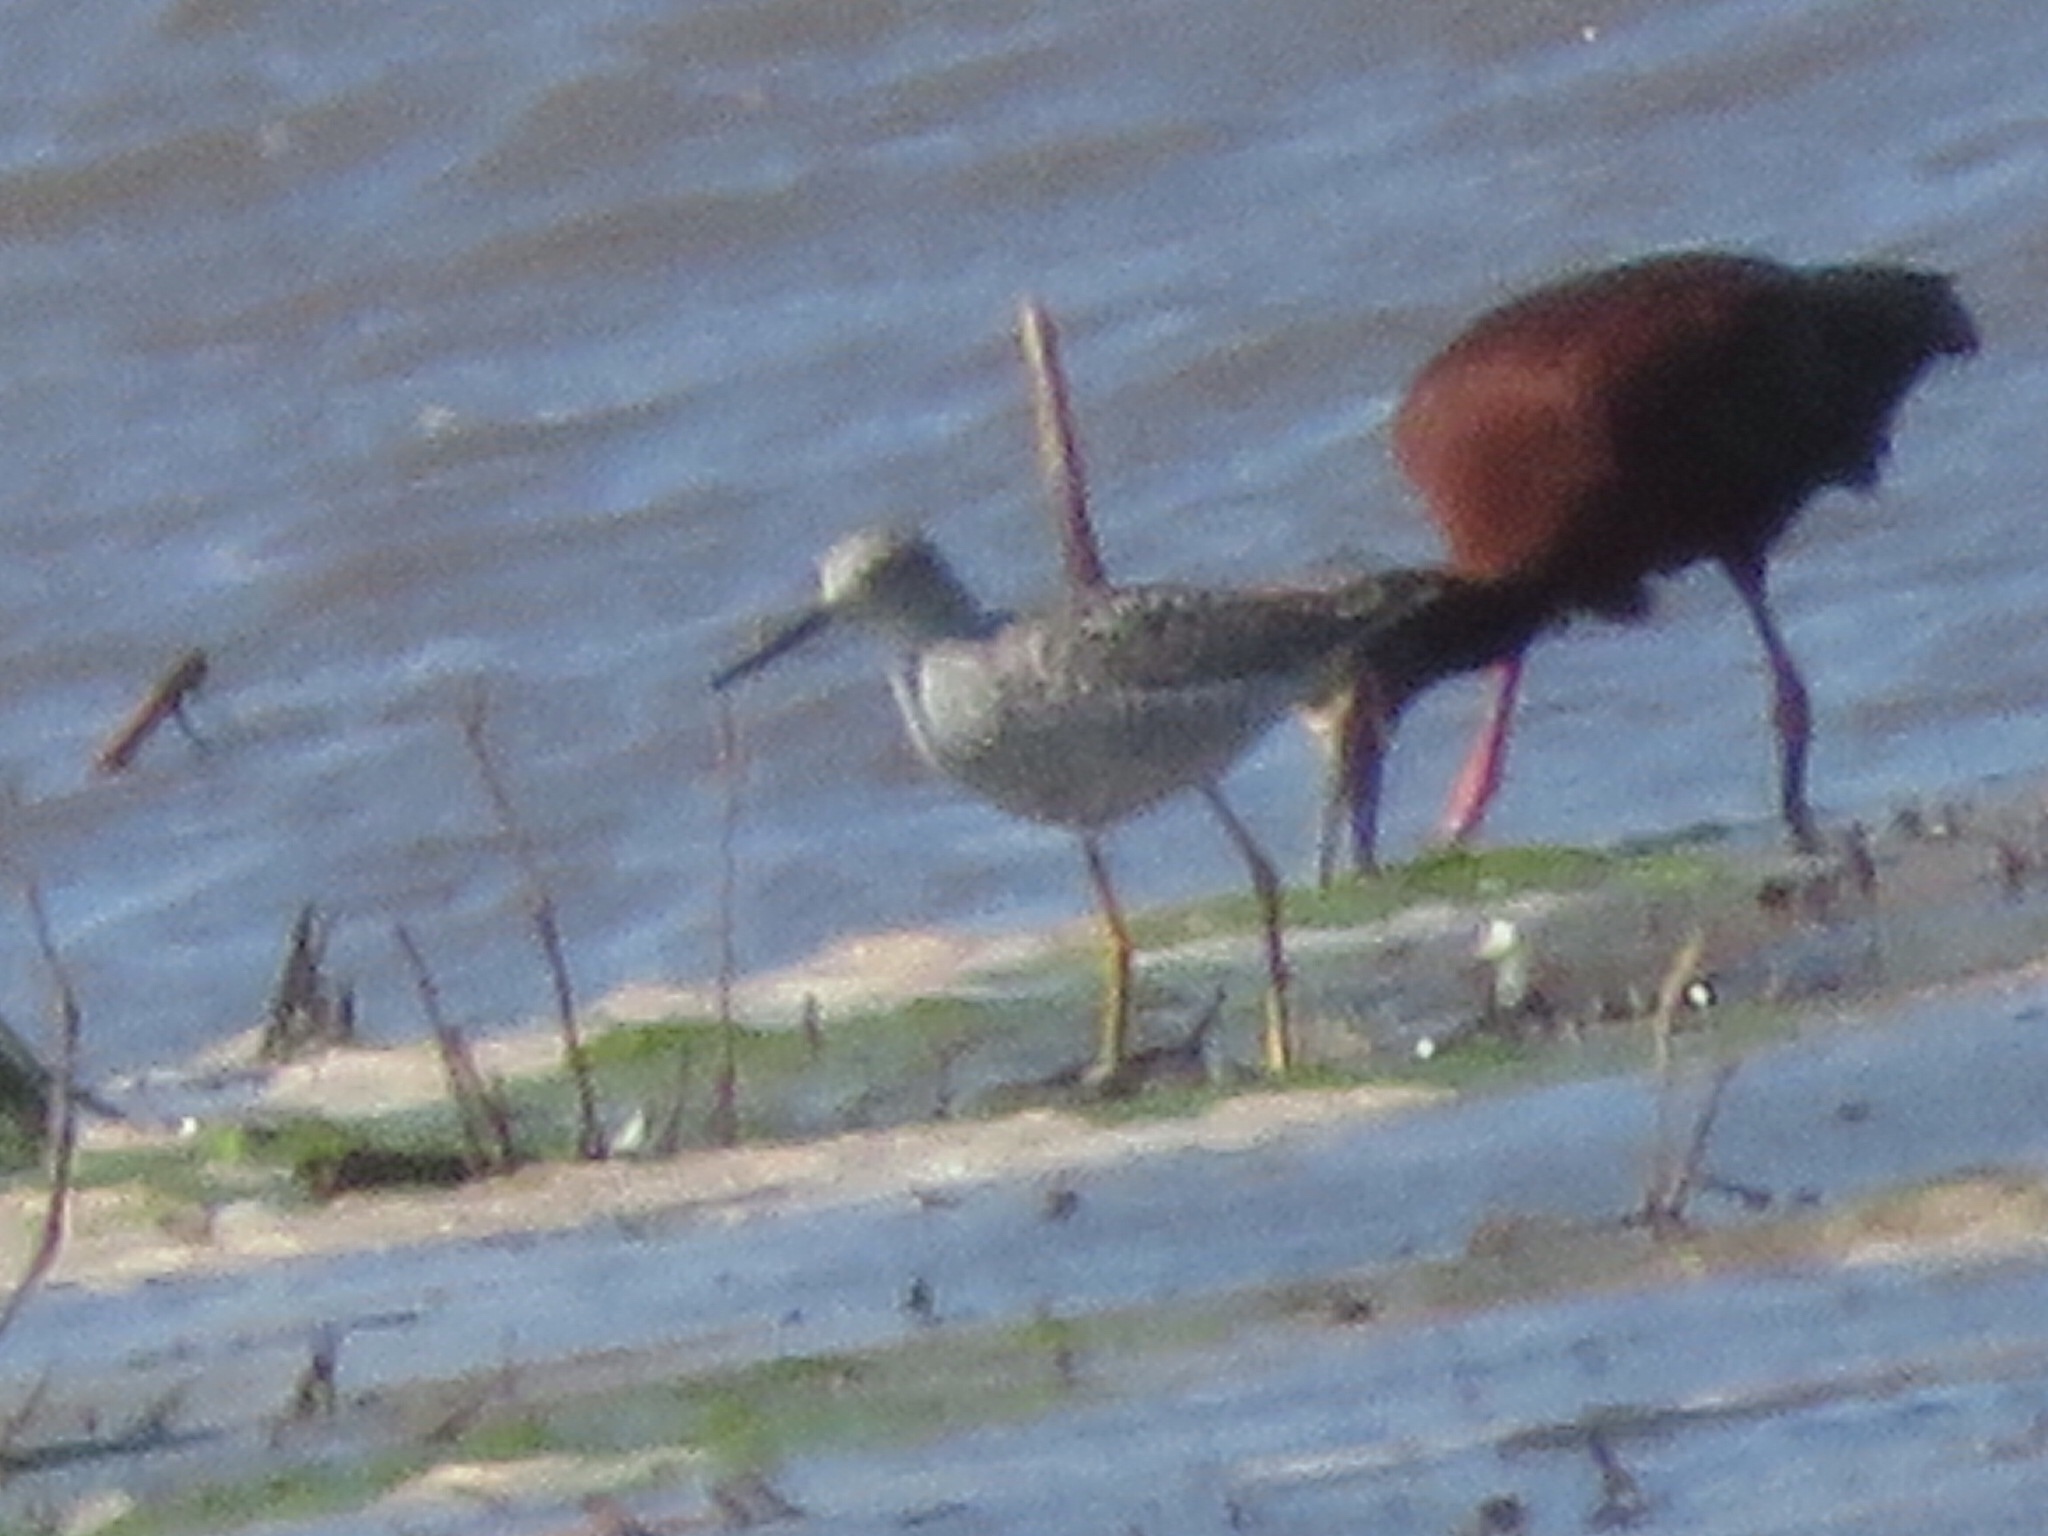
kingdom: Animalia
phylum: Chordata
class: Aves
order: Charadriiformes
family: Scolopacidae
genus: Tringa
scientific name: Tringa flavipes
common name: Lesser yellowlegs
